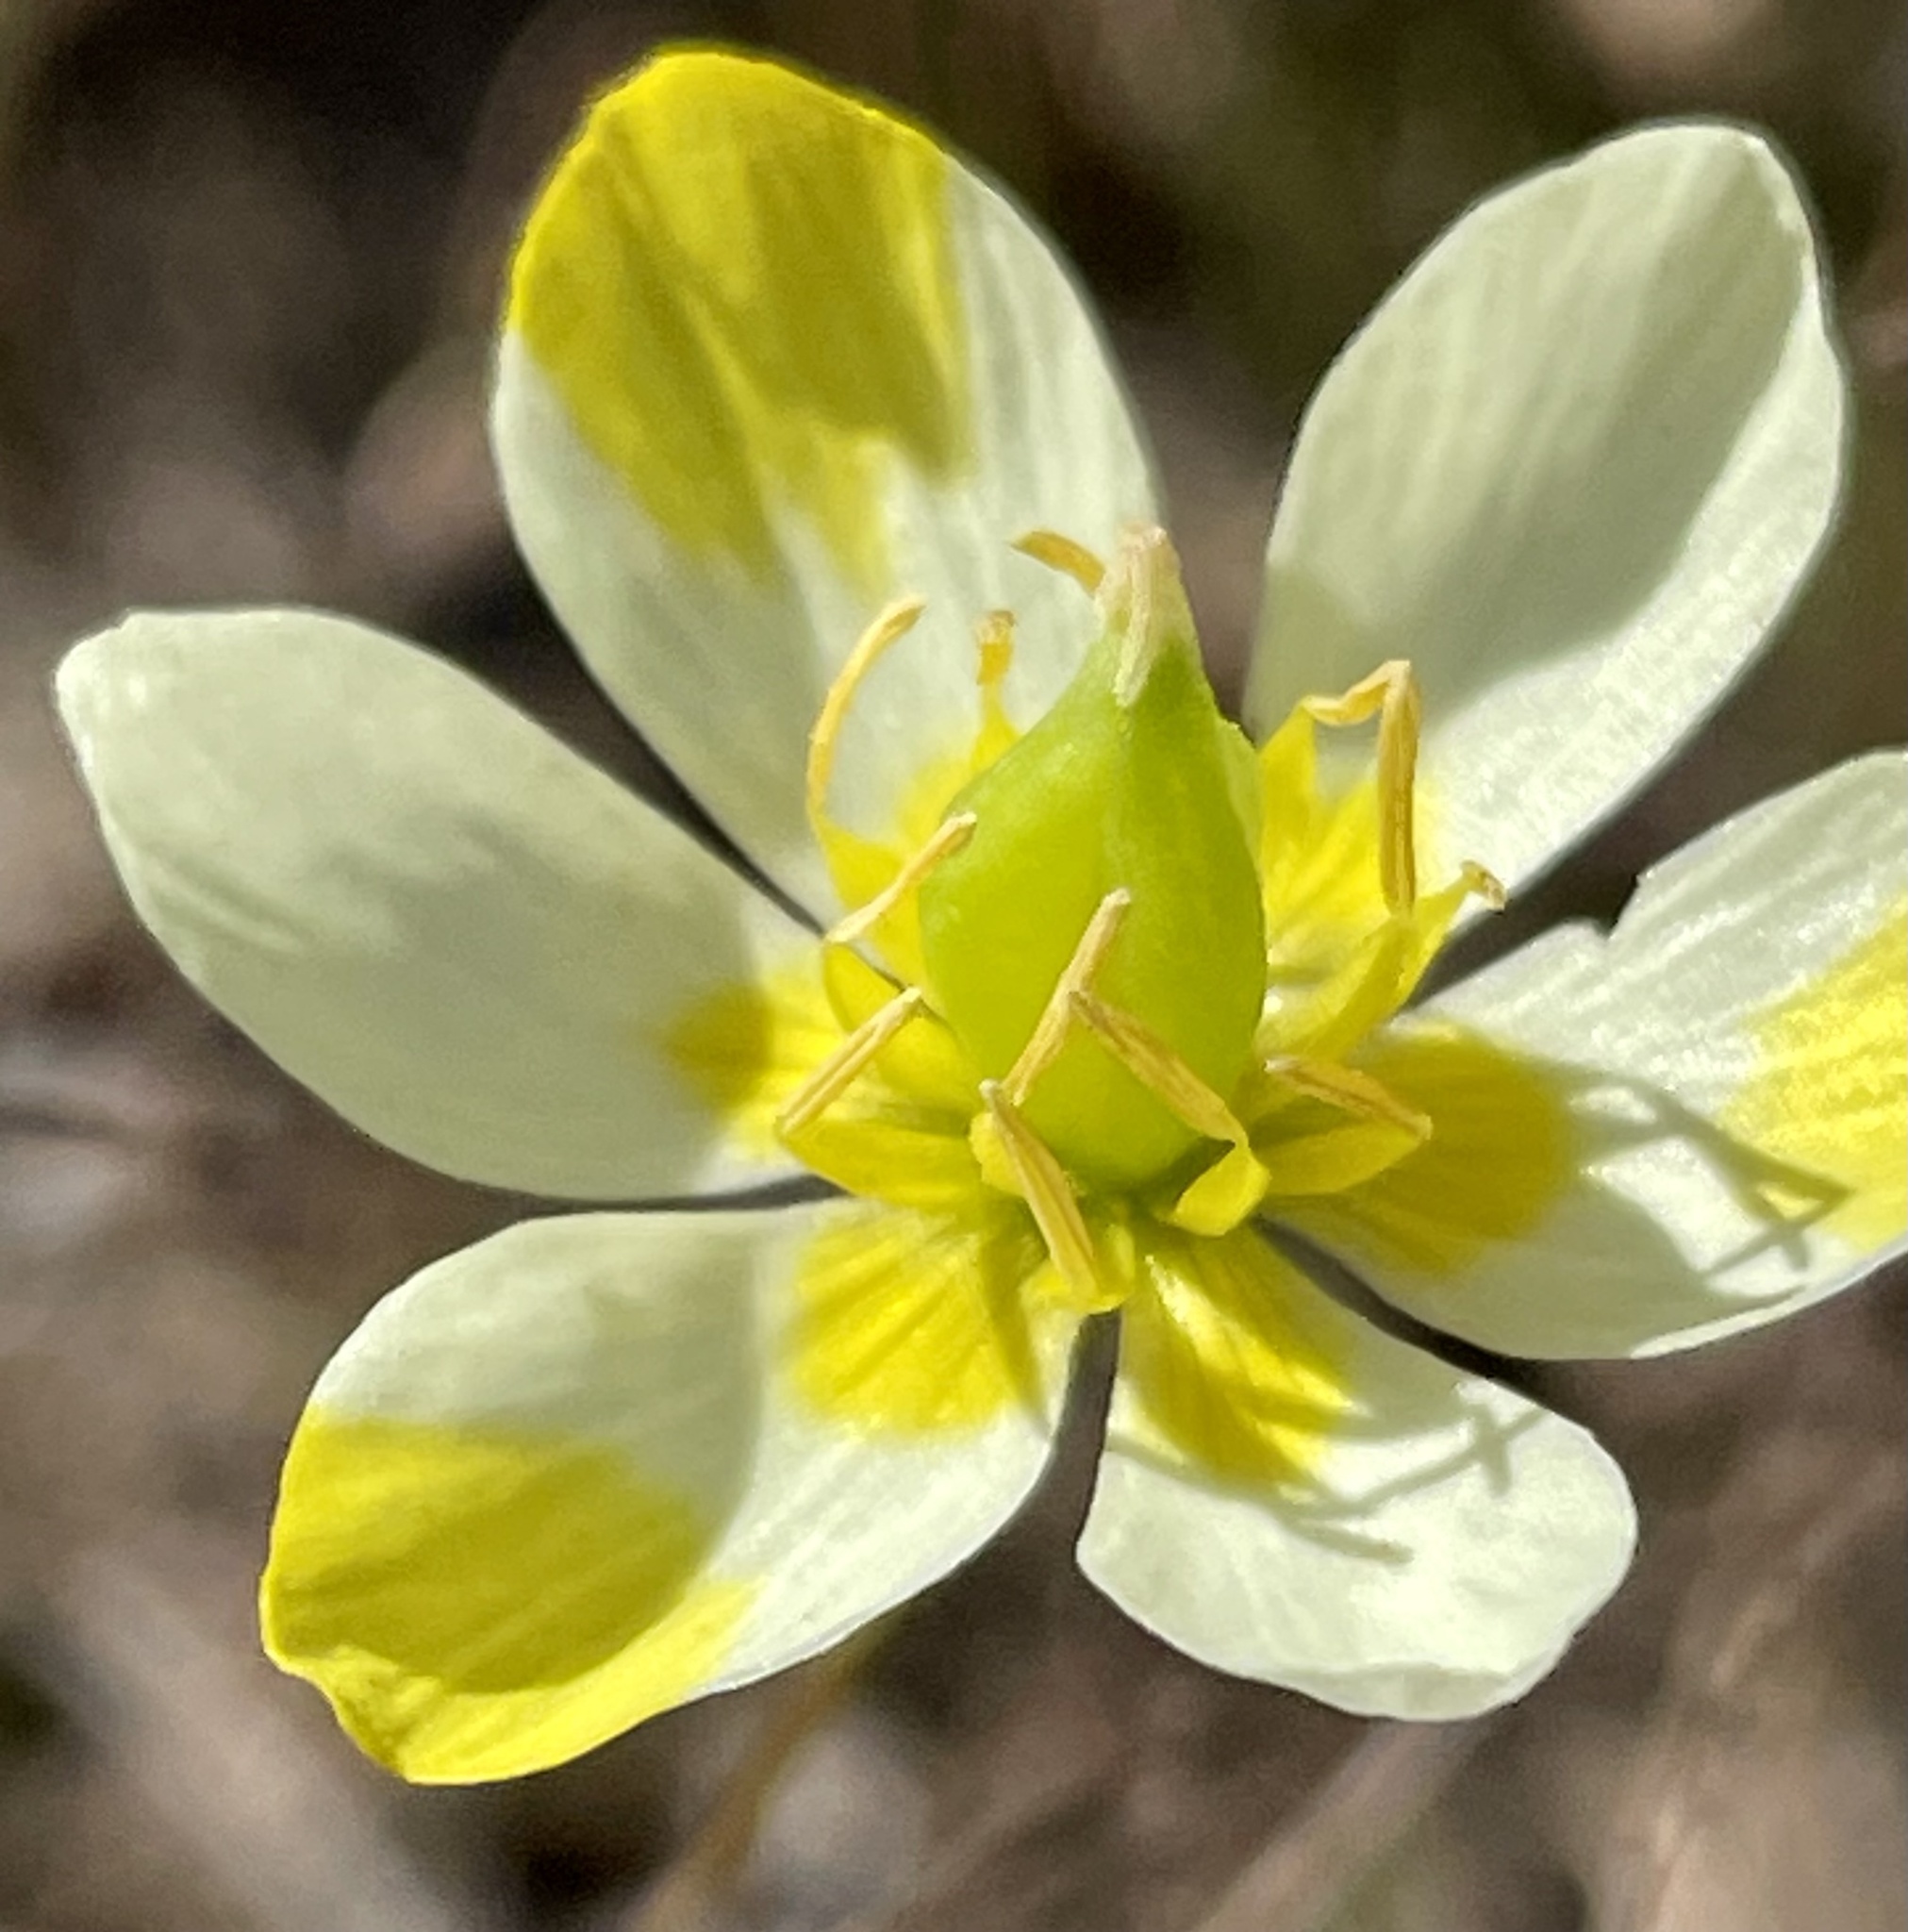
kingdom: Plantae
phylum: Tracheophyta
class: Magnoliopsida
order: Ranunculales
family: Papaveraceae
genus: Platystigma
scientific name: Platystigma lineare
